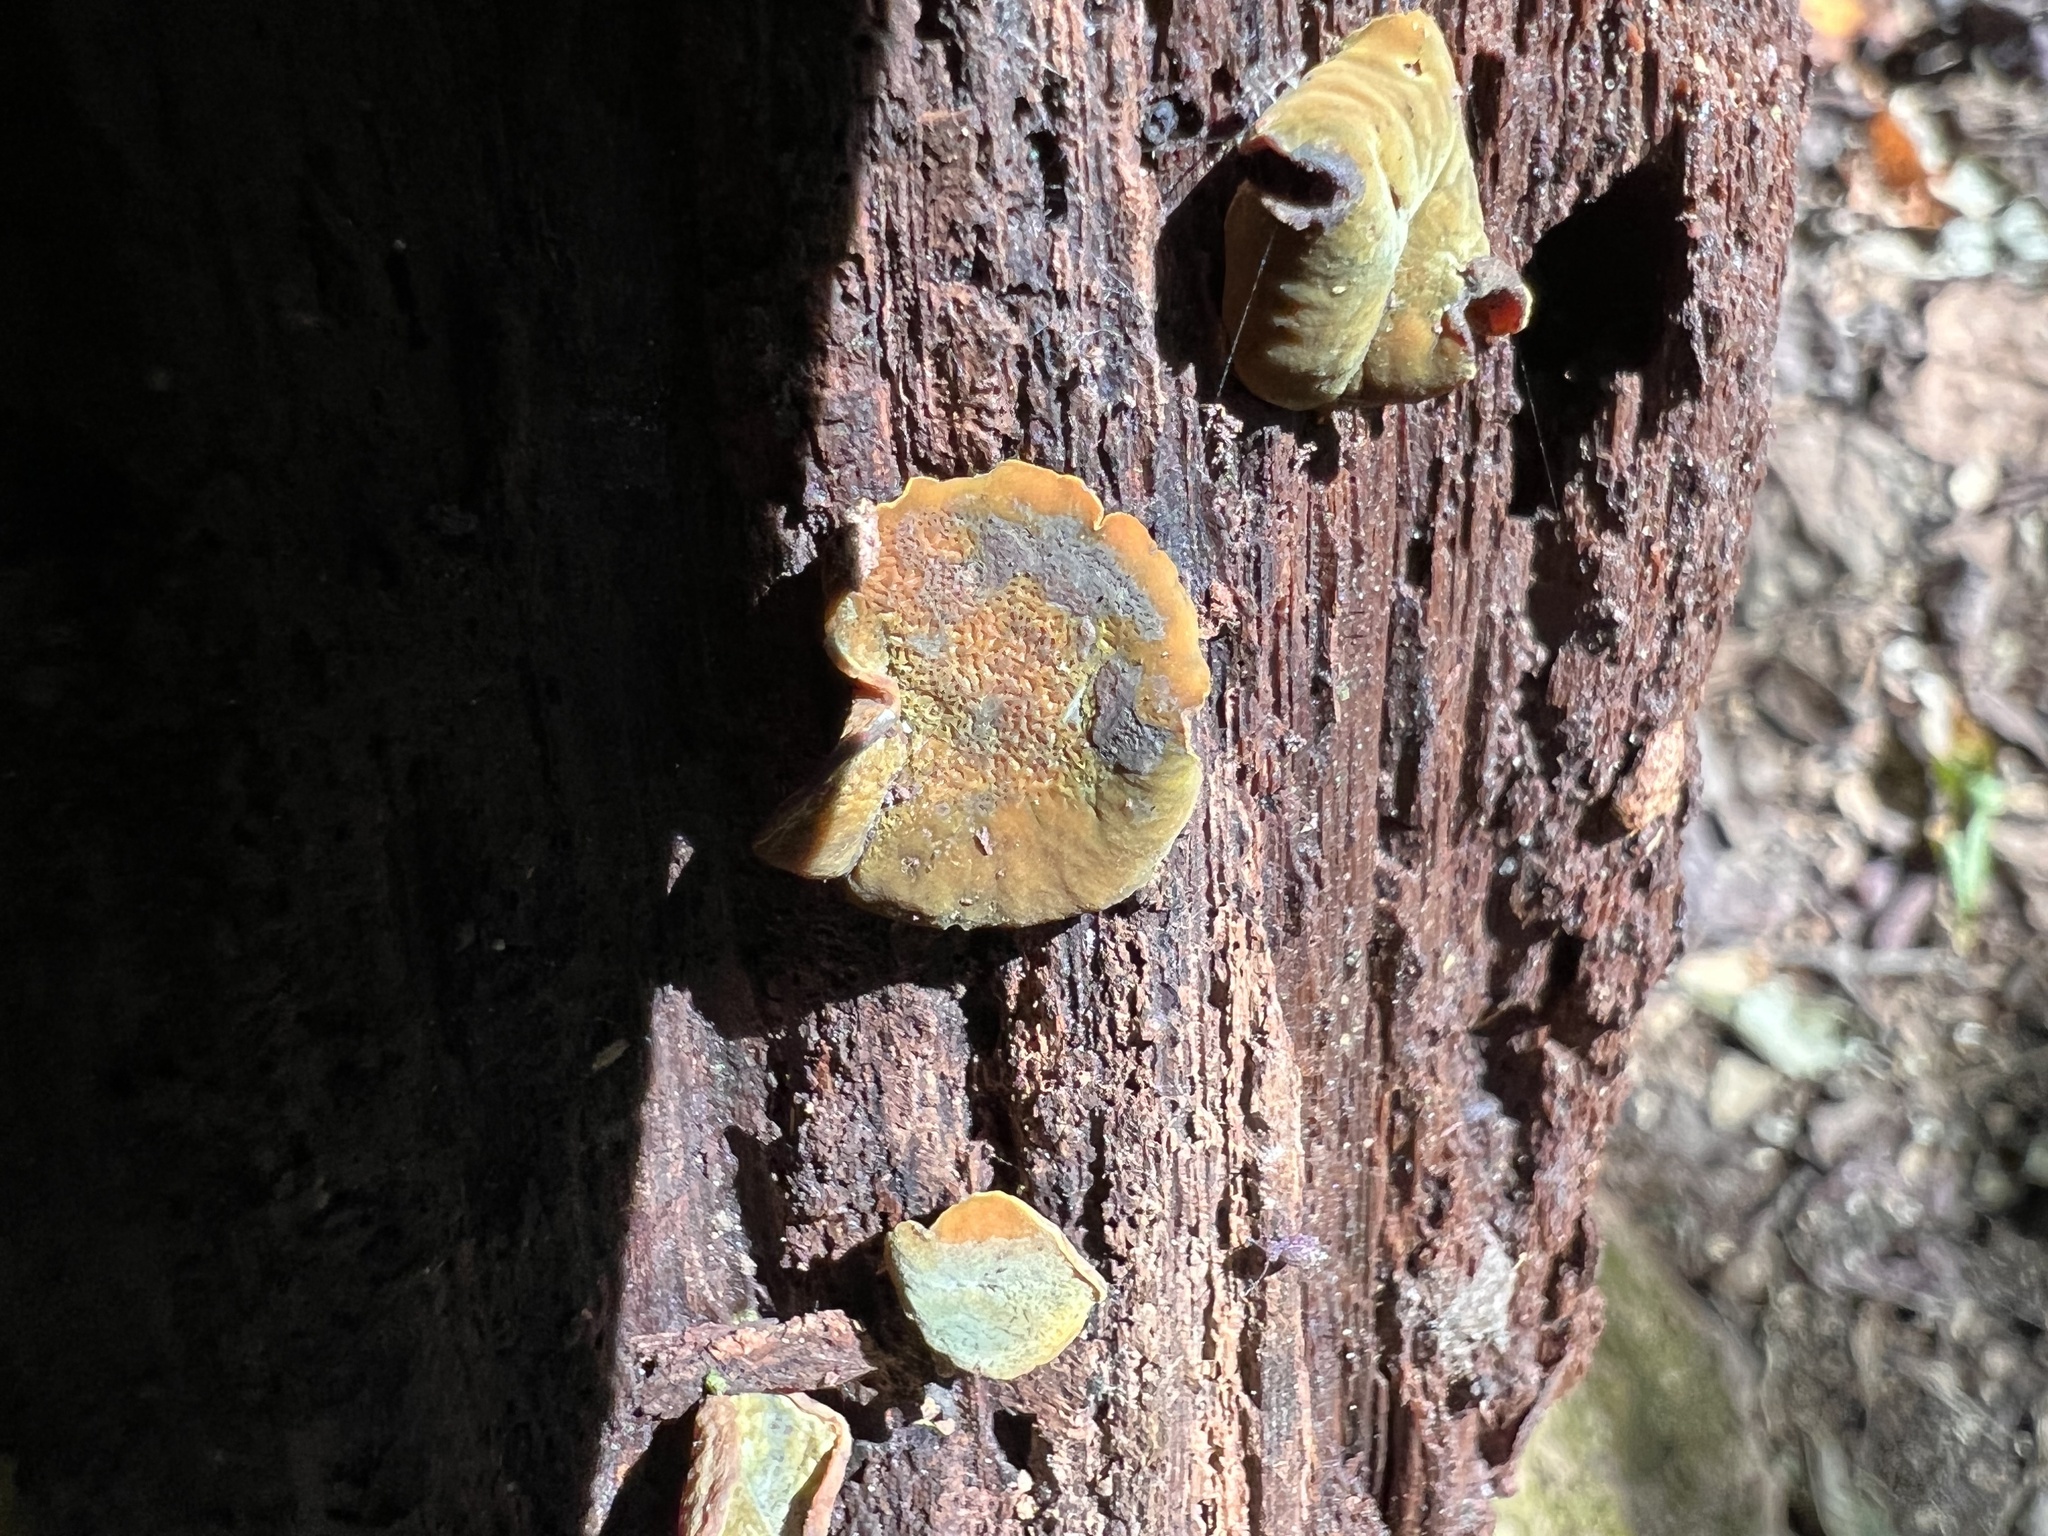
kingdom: Fungi
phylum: Ascomycota
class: Leotiomycetes
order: Helotiales
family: Cenangiaceae
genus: Chlorencoelia
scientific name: Chlorencoelia torta
